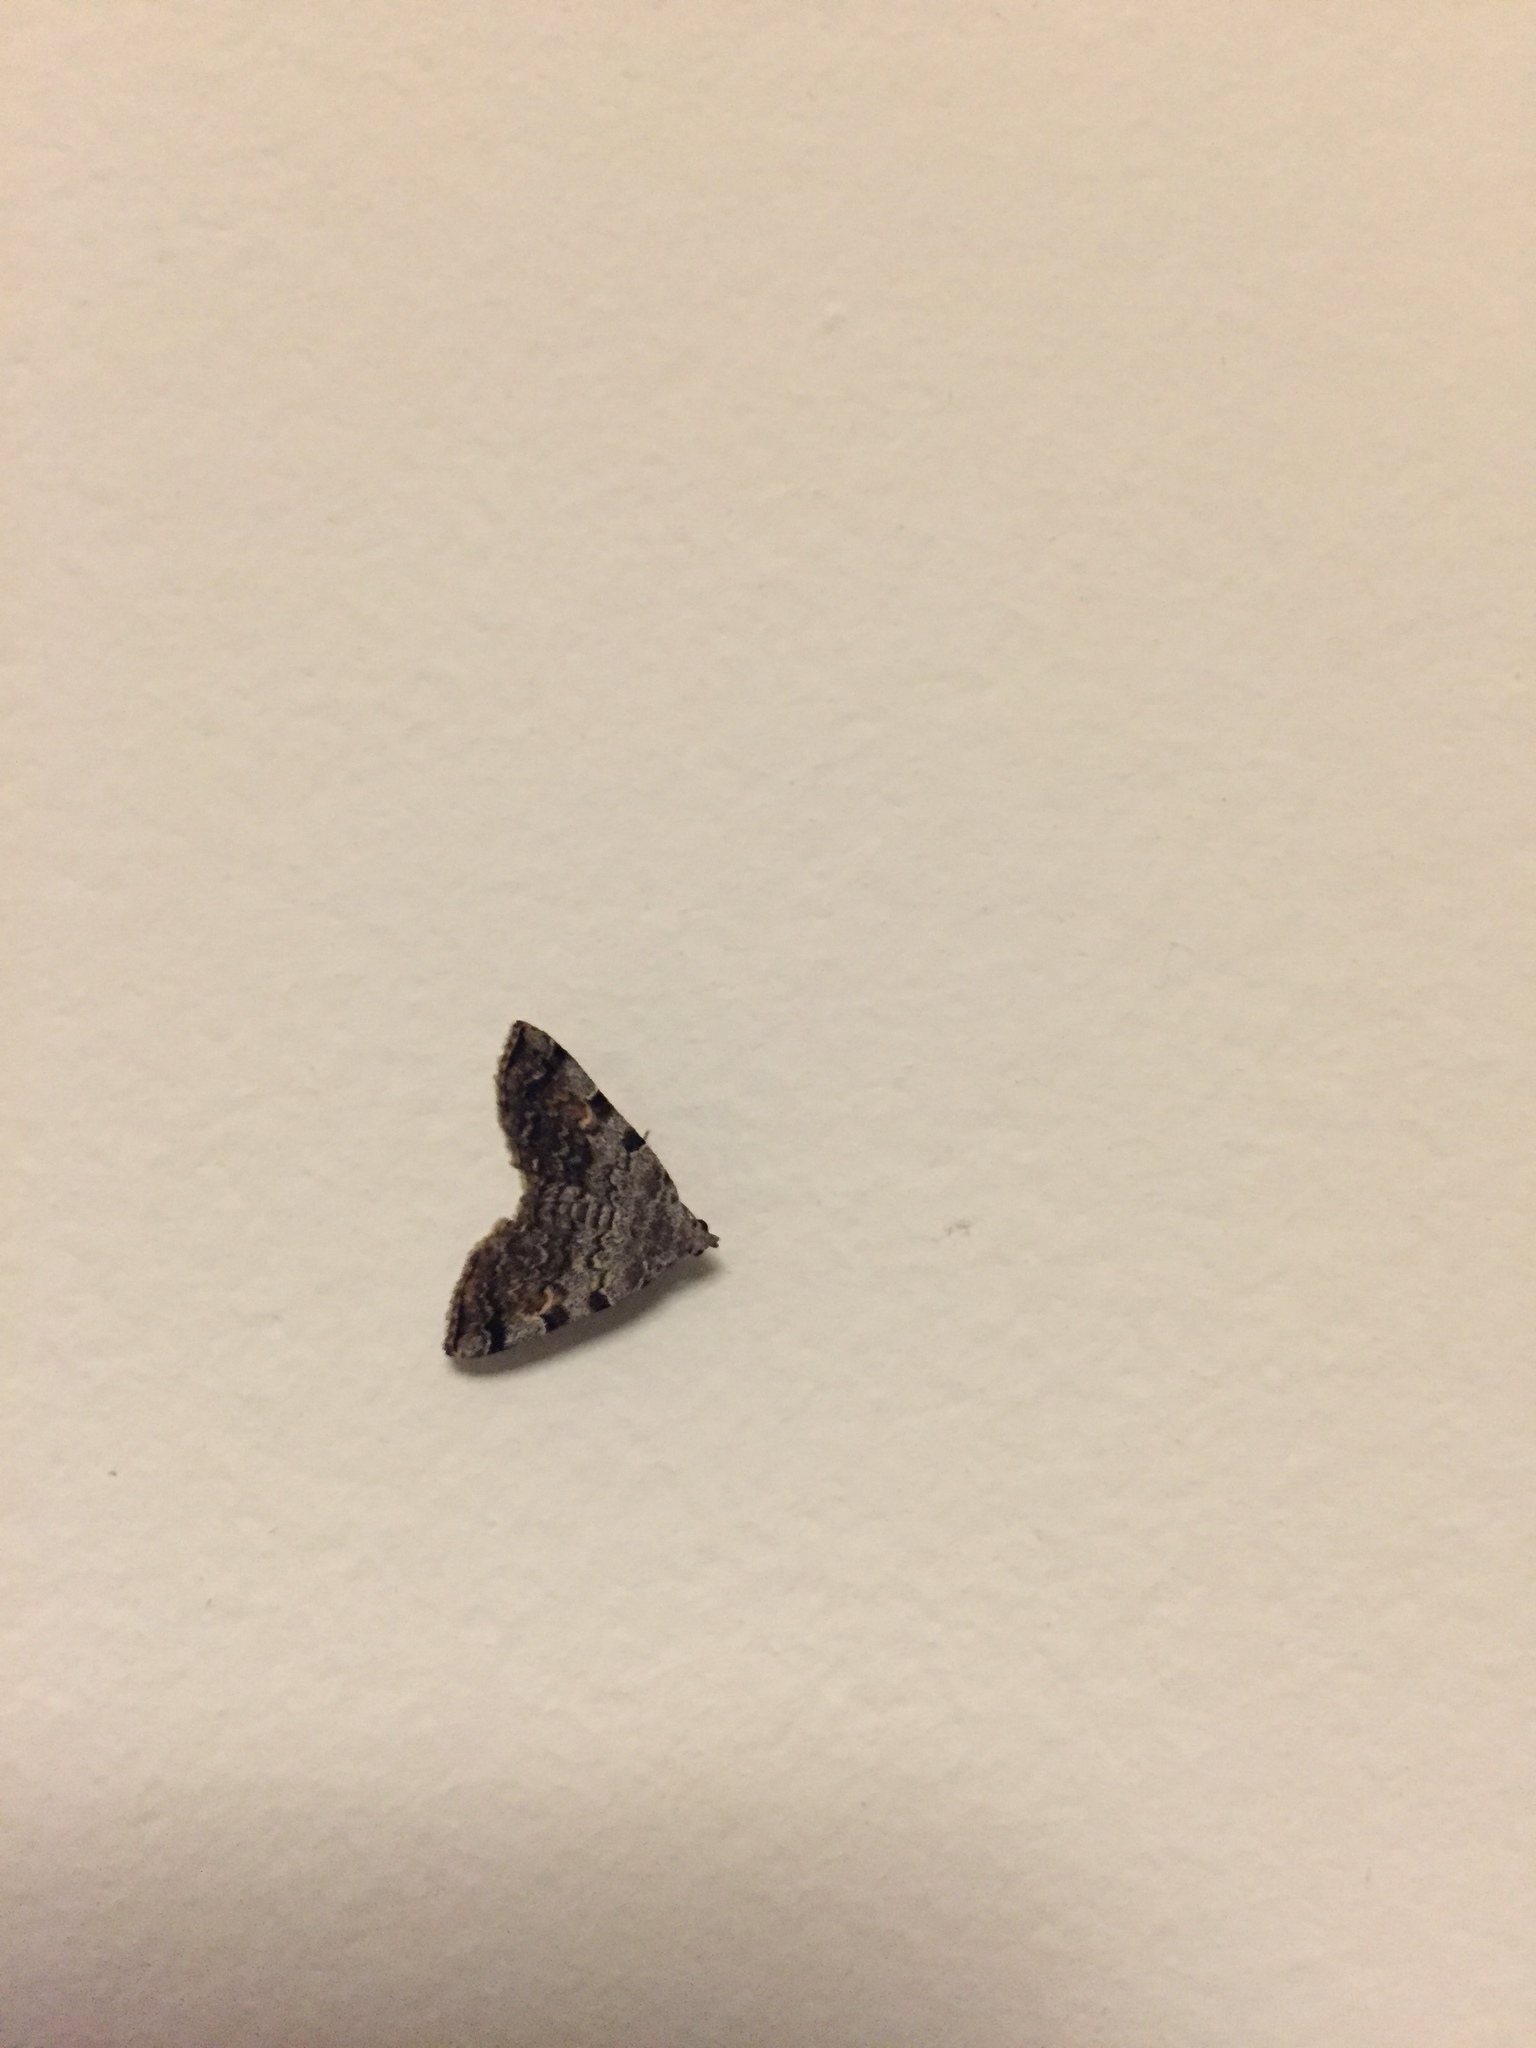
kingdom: Animalia
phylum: Arthropoda
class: Insecta
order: Lepidoptera
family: Erebidae
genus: Idia
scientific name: Idia americalis
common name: American idia moth
